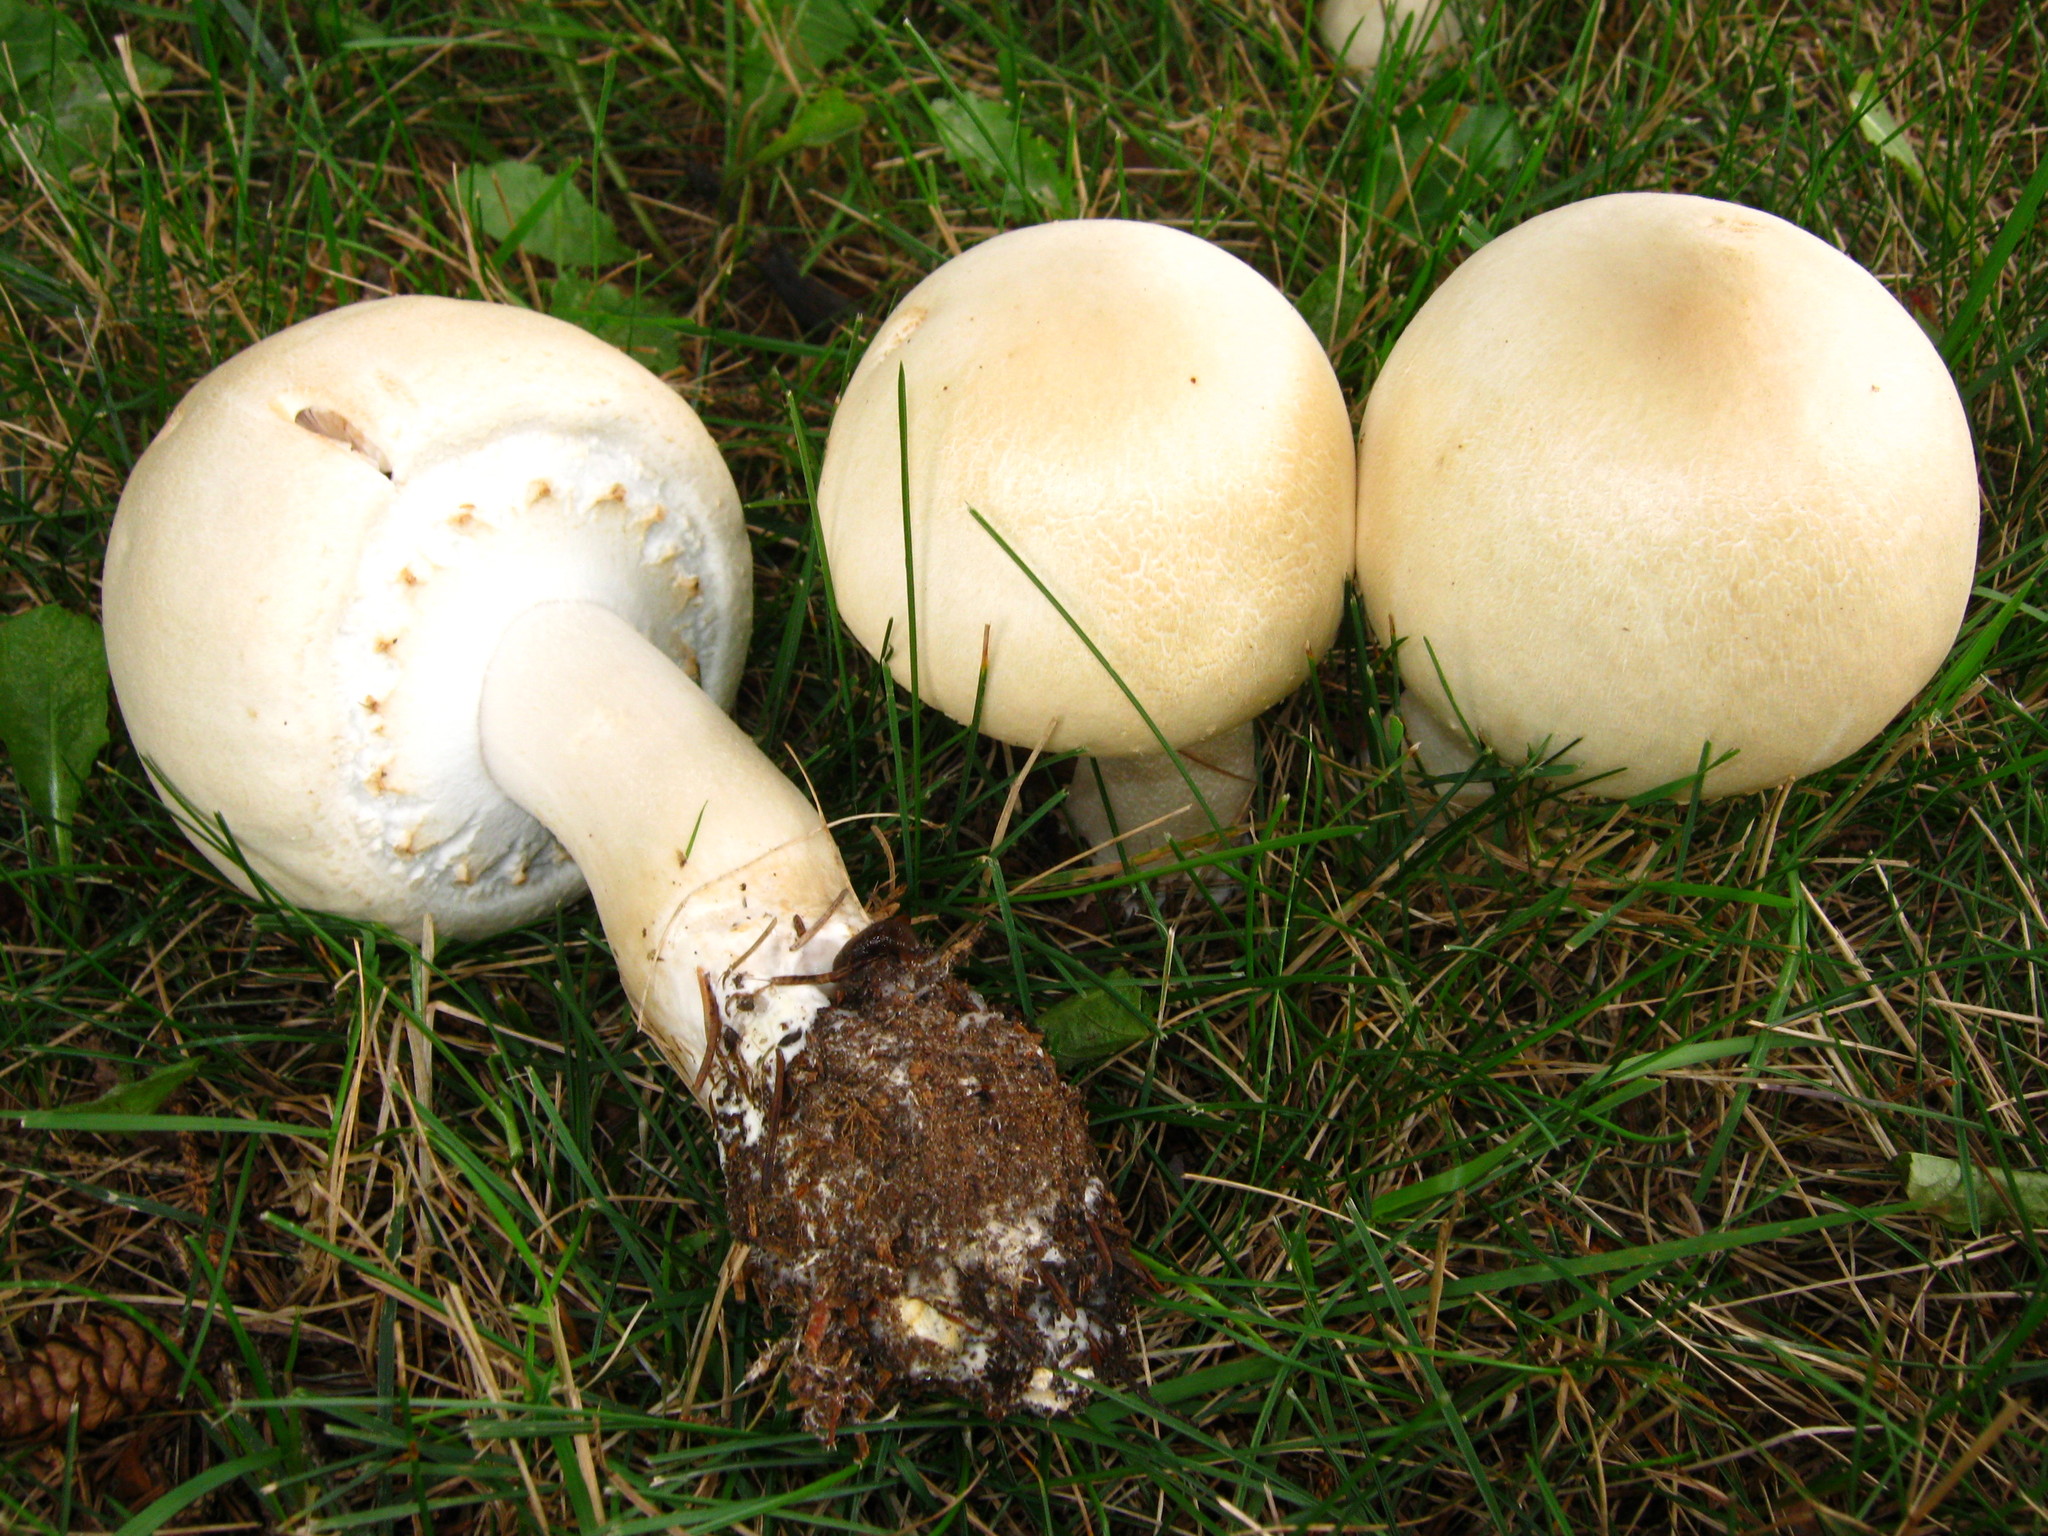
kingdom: Fungi
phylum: Basidiomycota
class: Agaricomycetes
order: Agaricales
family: Agaricaceae
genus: Agaricus
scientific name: Agaricus arvensis
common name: Horse mushroom
